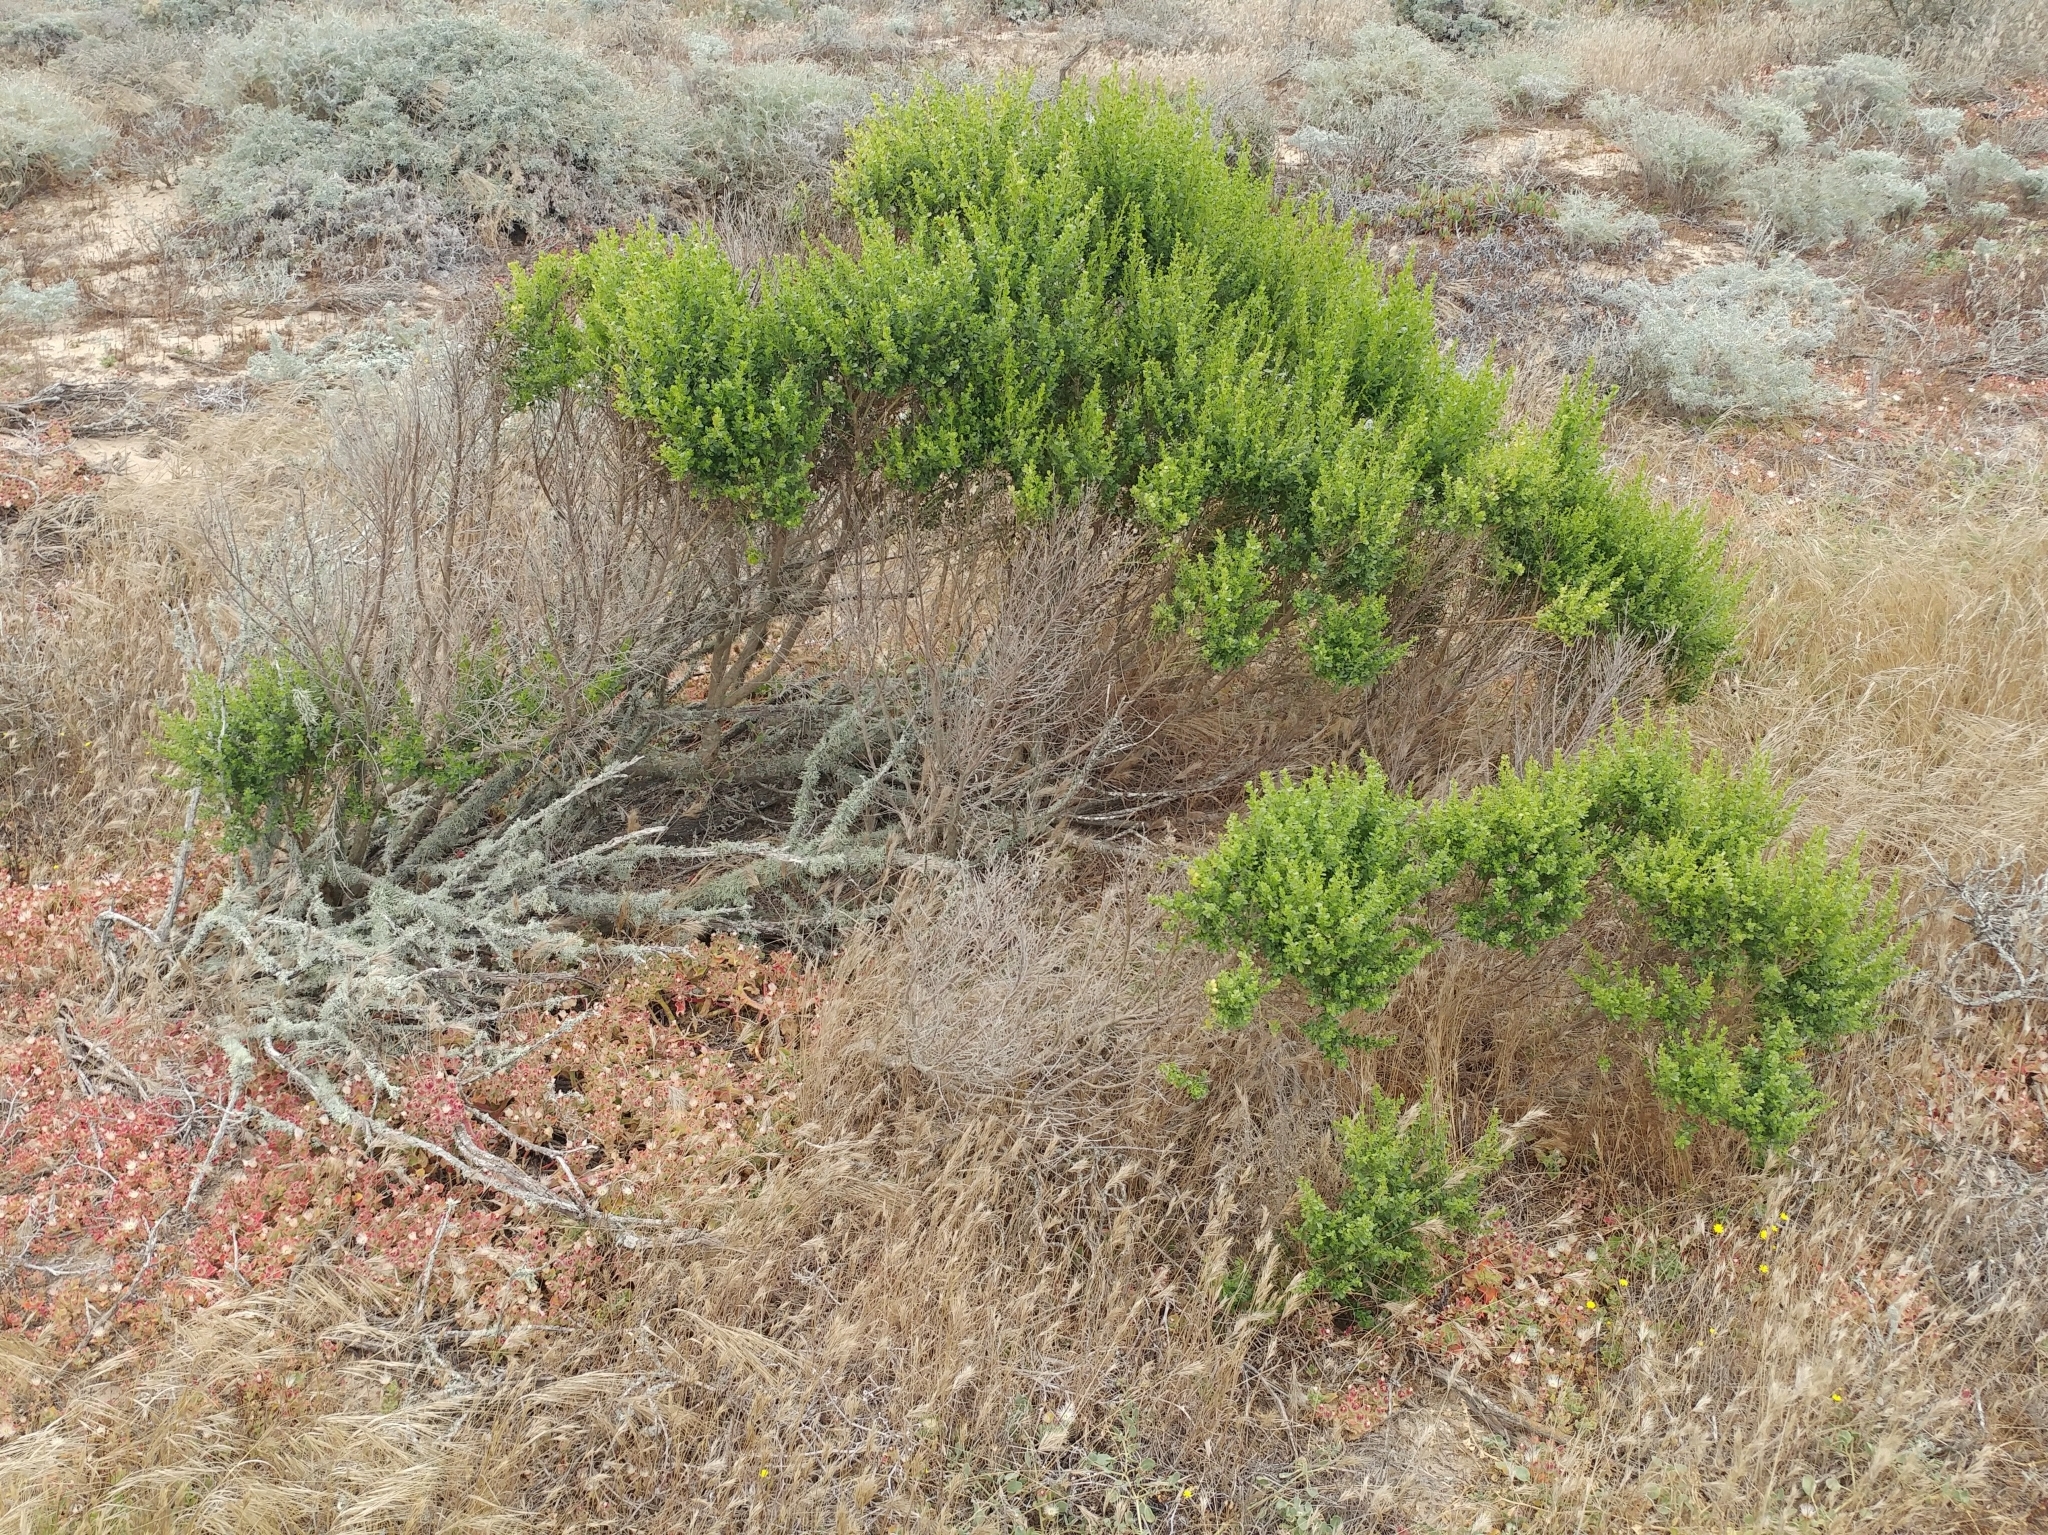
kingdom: Plantae
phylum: Tracheophyta
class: Magnoliopsida
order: Asterales
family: Asteraceae
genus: Baccharis
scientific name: Baccharis pilularis
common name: Coyotebrush
